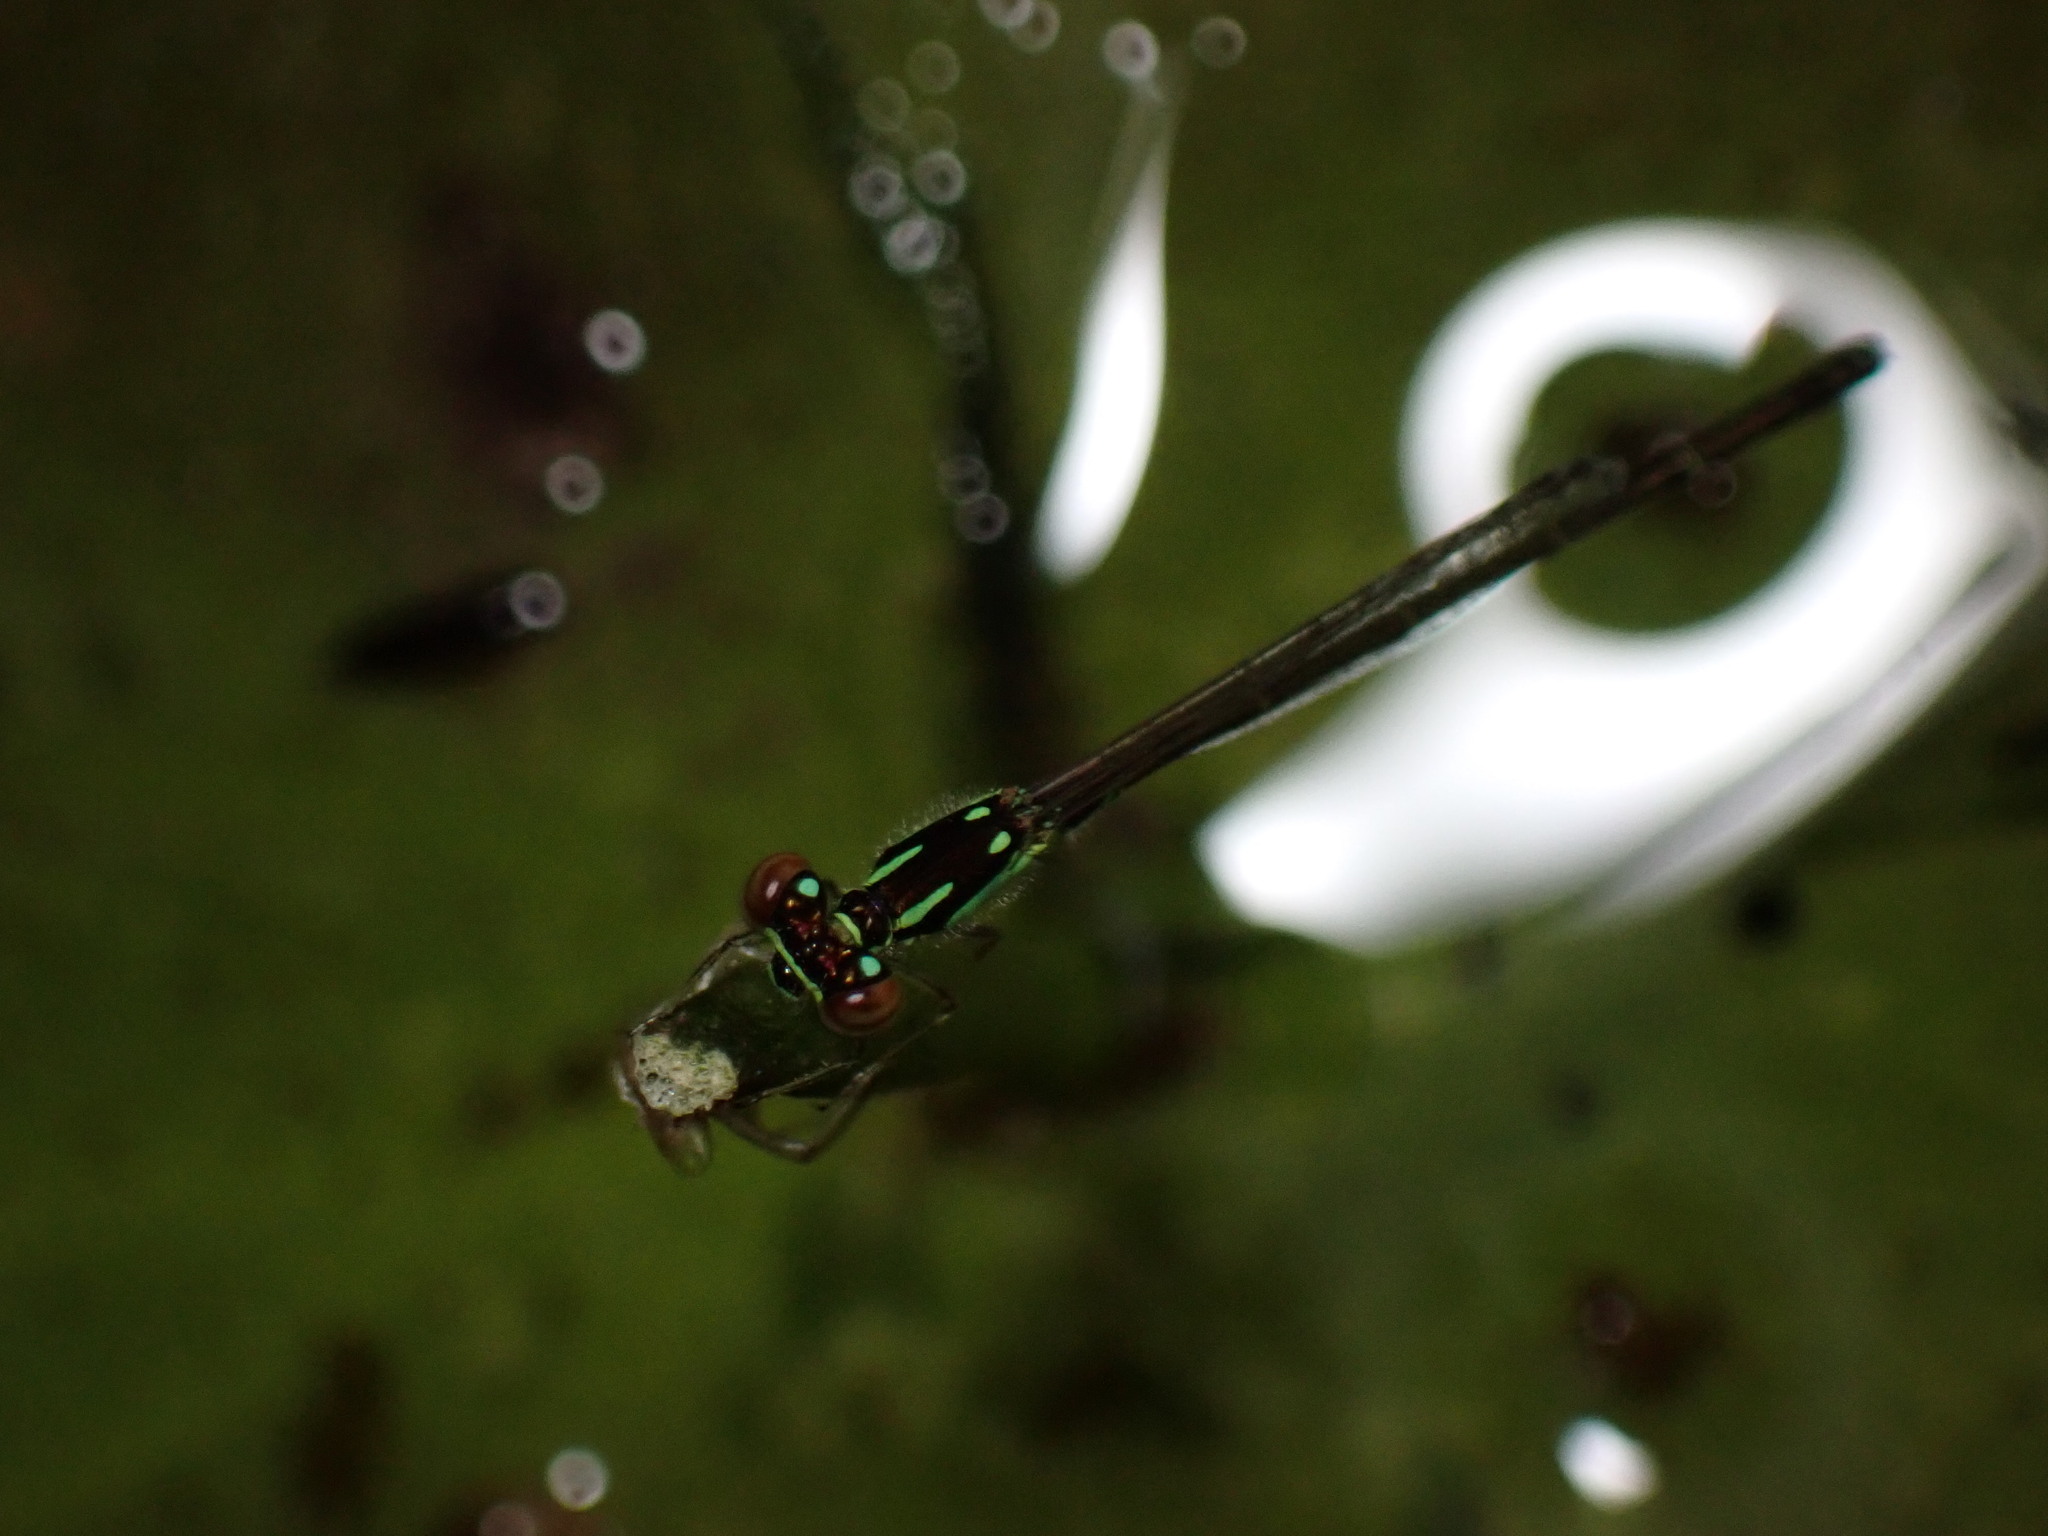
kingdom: Animalia
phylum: Arthropoda
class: Insecta
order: Odonata
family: Coenagrionidae
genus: Ischnura
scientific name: Ischnura posita
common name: Fragile forktail
